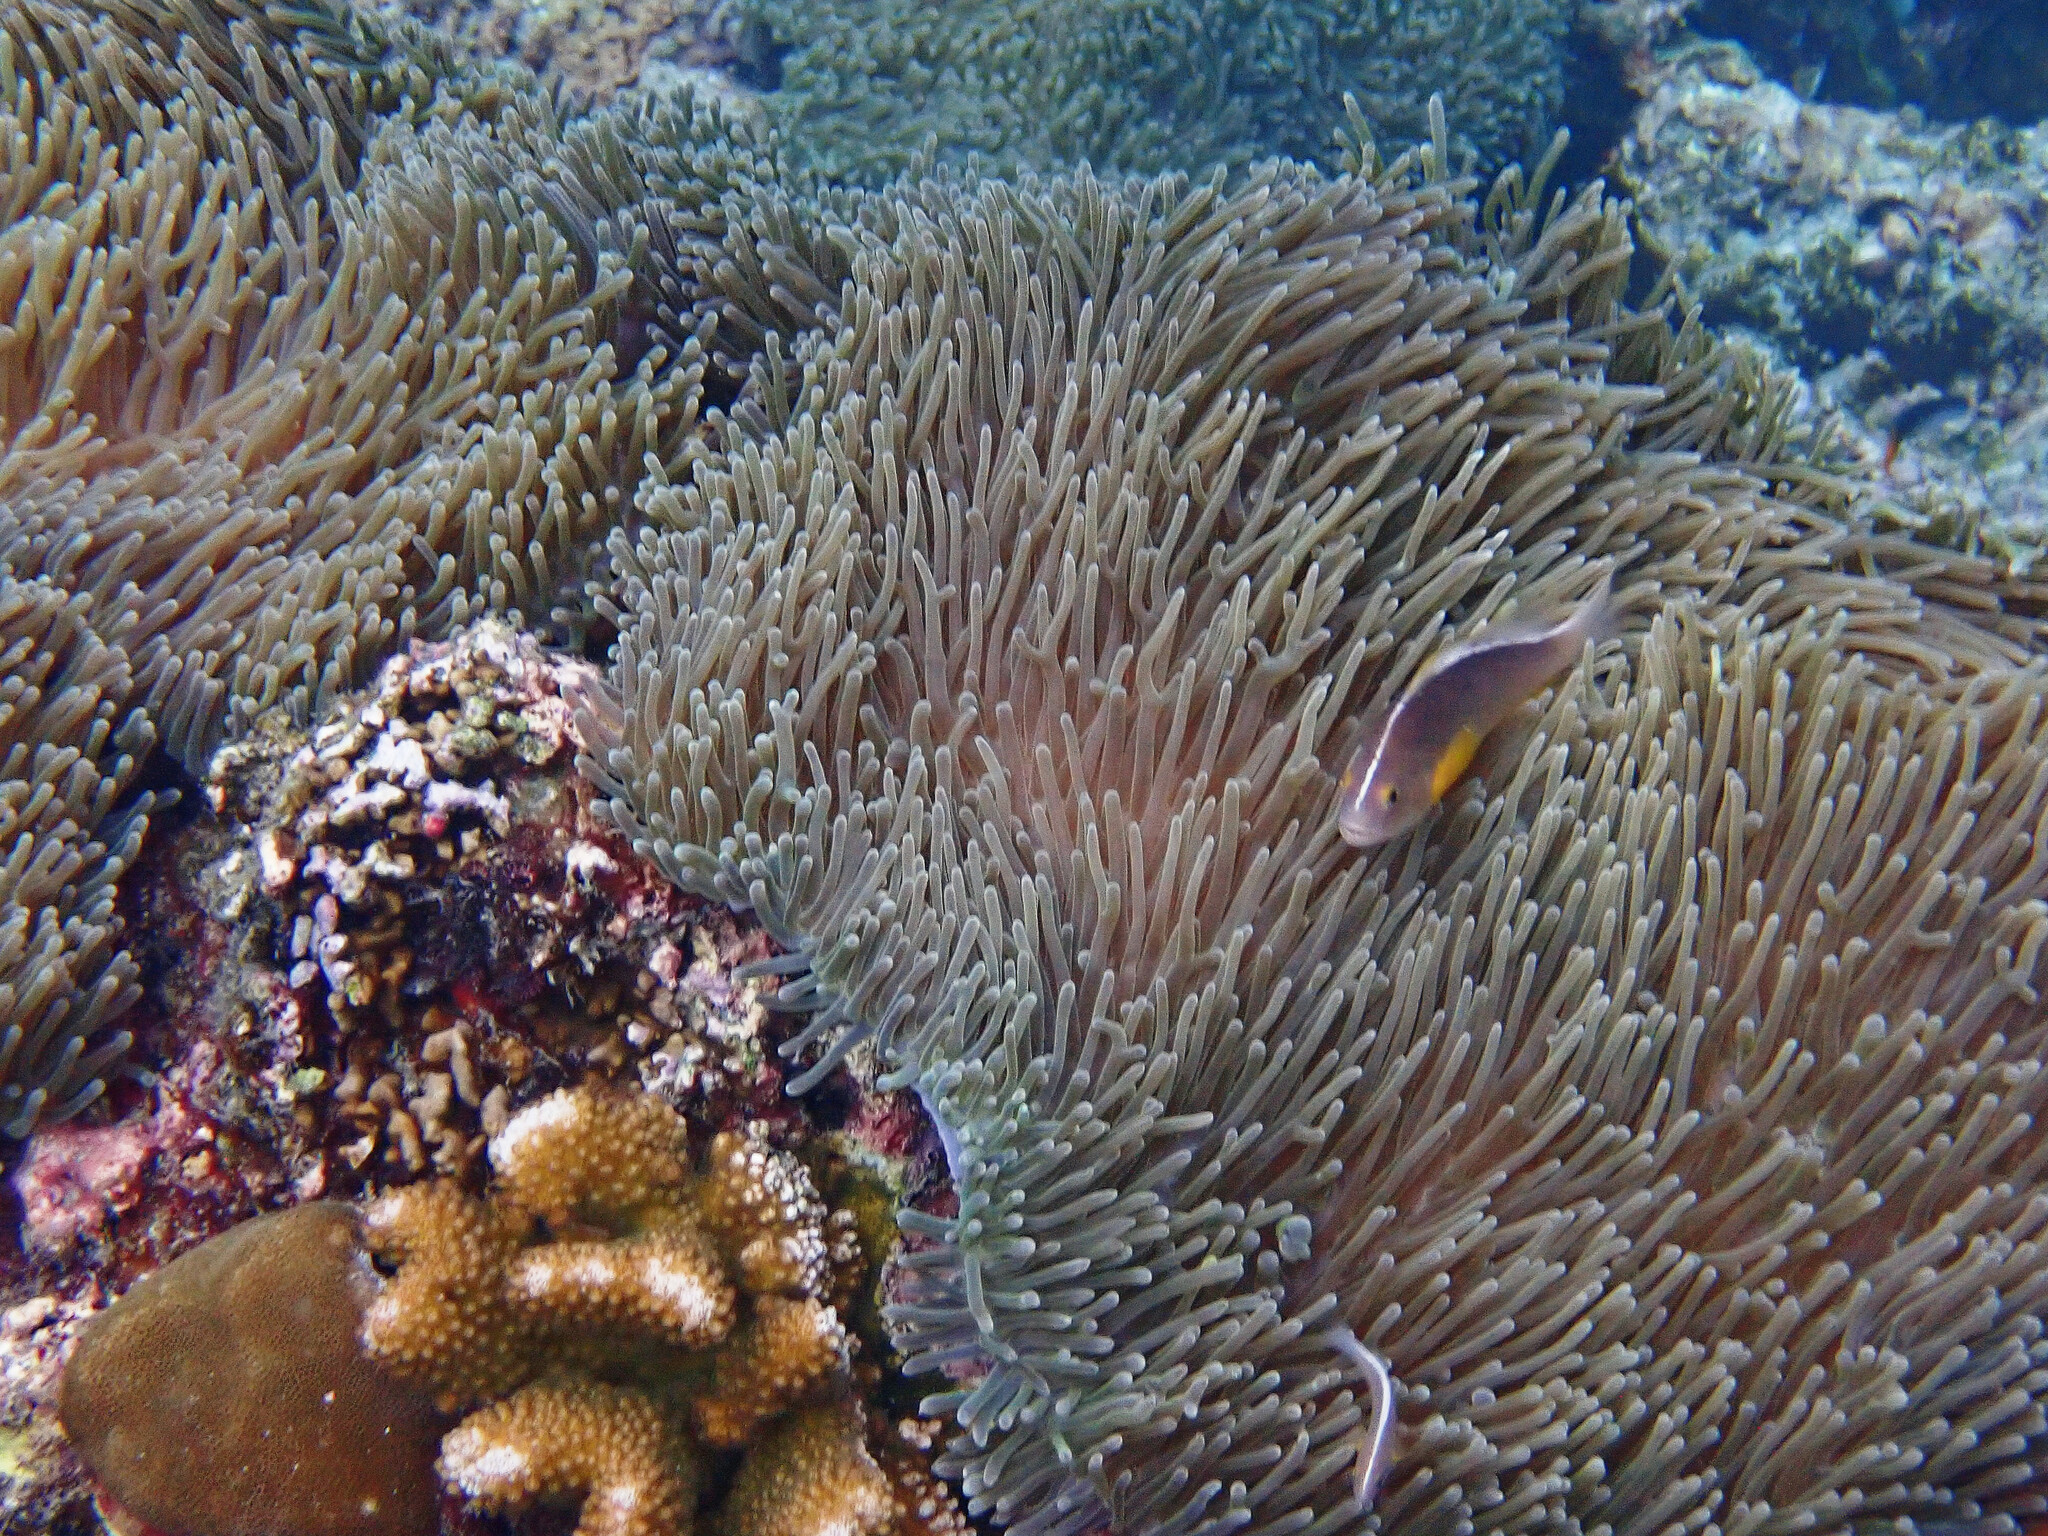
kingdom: Animalia
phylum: Cnidaria
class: Anthozoa
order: Actiniaria
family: Stichodactylidae
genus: Radianthus
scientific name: Radianthus magnifica
